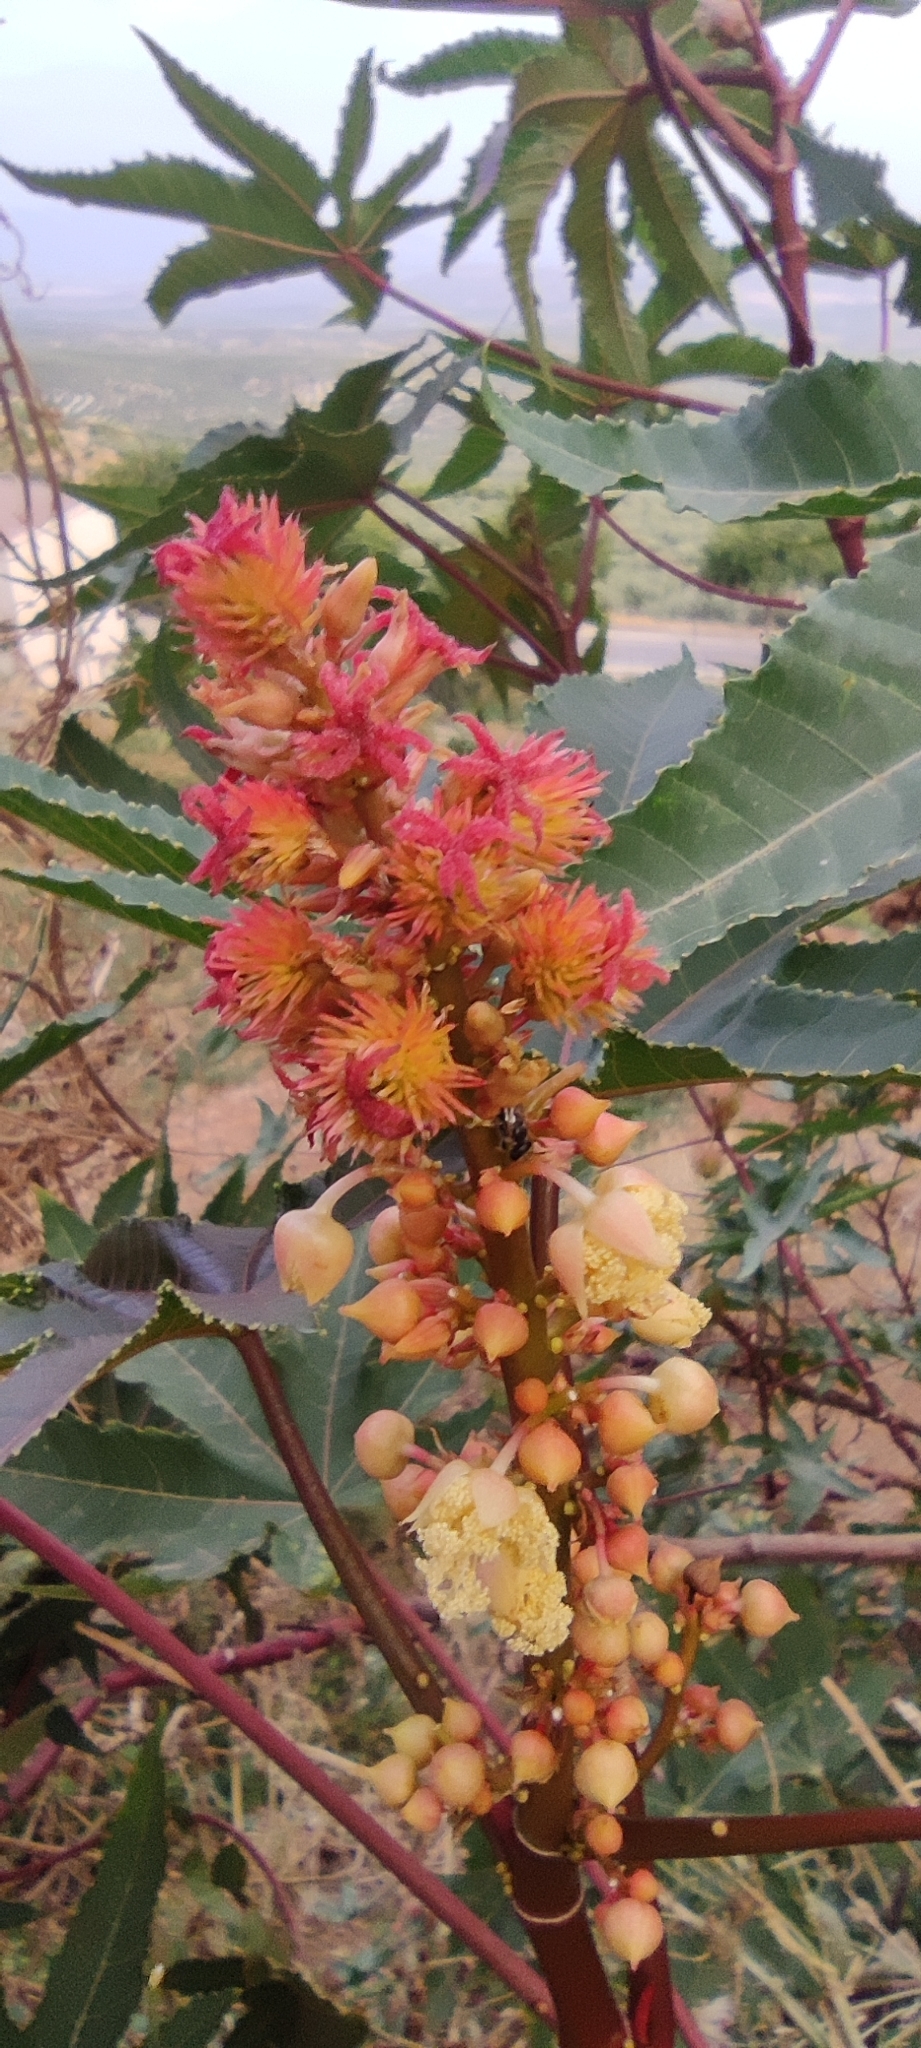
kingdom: Plantae
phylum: Tracheophyta
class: Magnoliopsida
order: Malpighiales
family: Euphorbiaceae
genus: Ricinus
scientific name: Ricinus communis
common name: Castor-oil-plant
